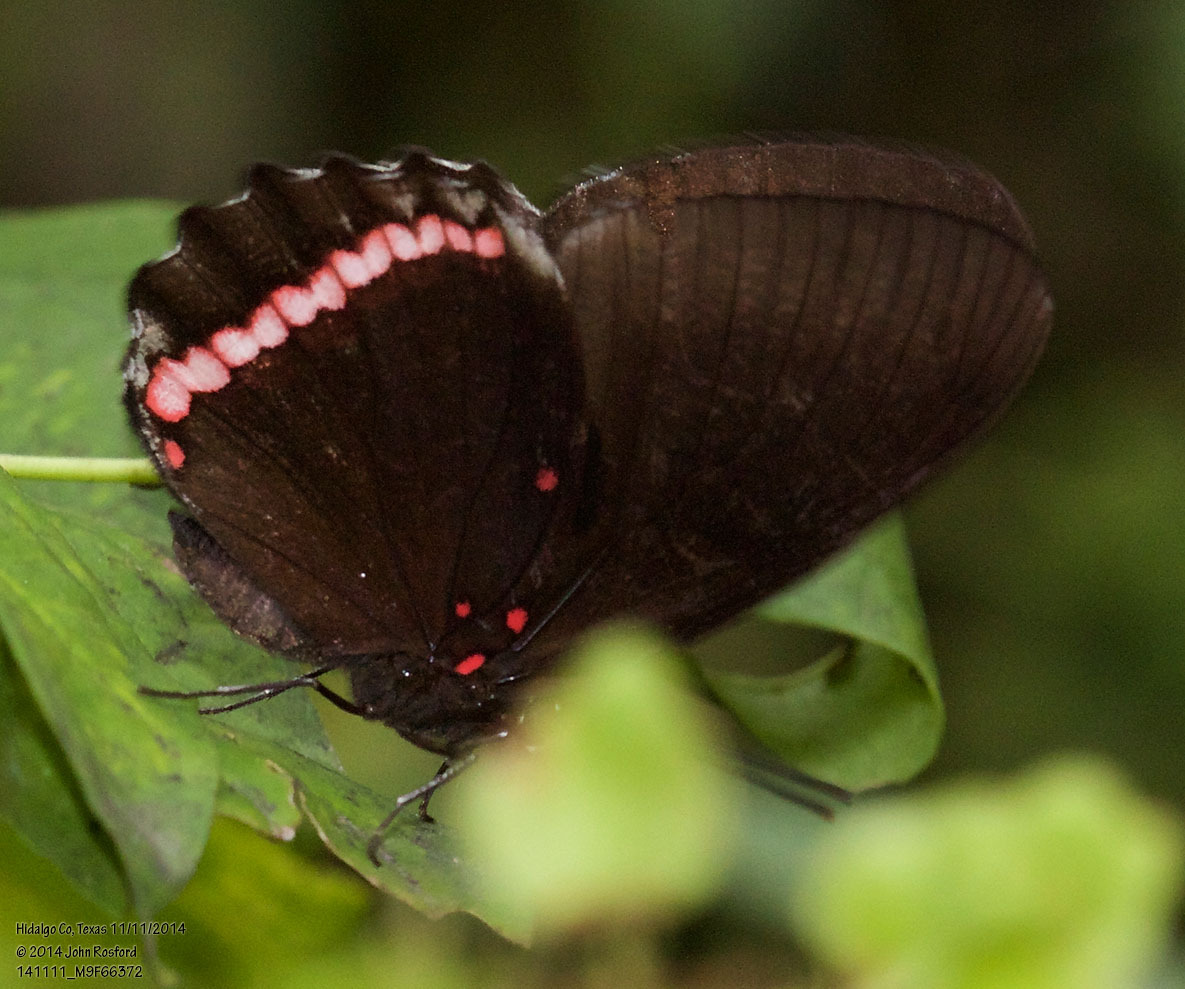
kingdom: Animalia
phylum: Arthropoda
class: Insecta
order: Lepidoptera
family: Nymphalidae
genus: Biblis
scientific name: Biblis aganisa
